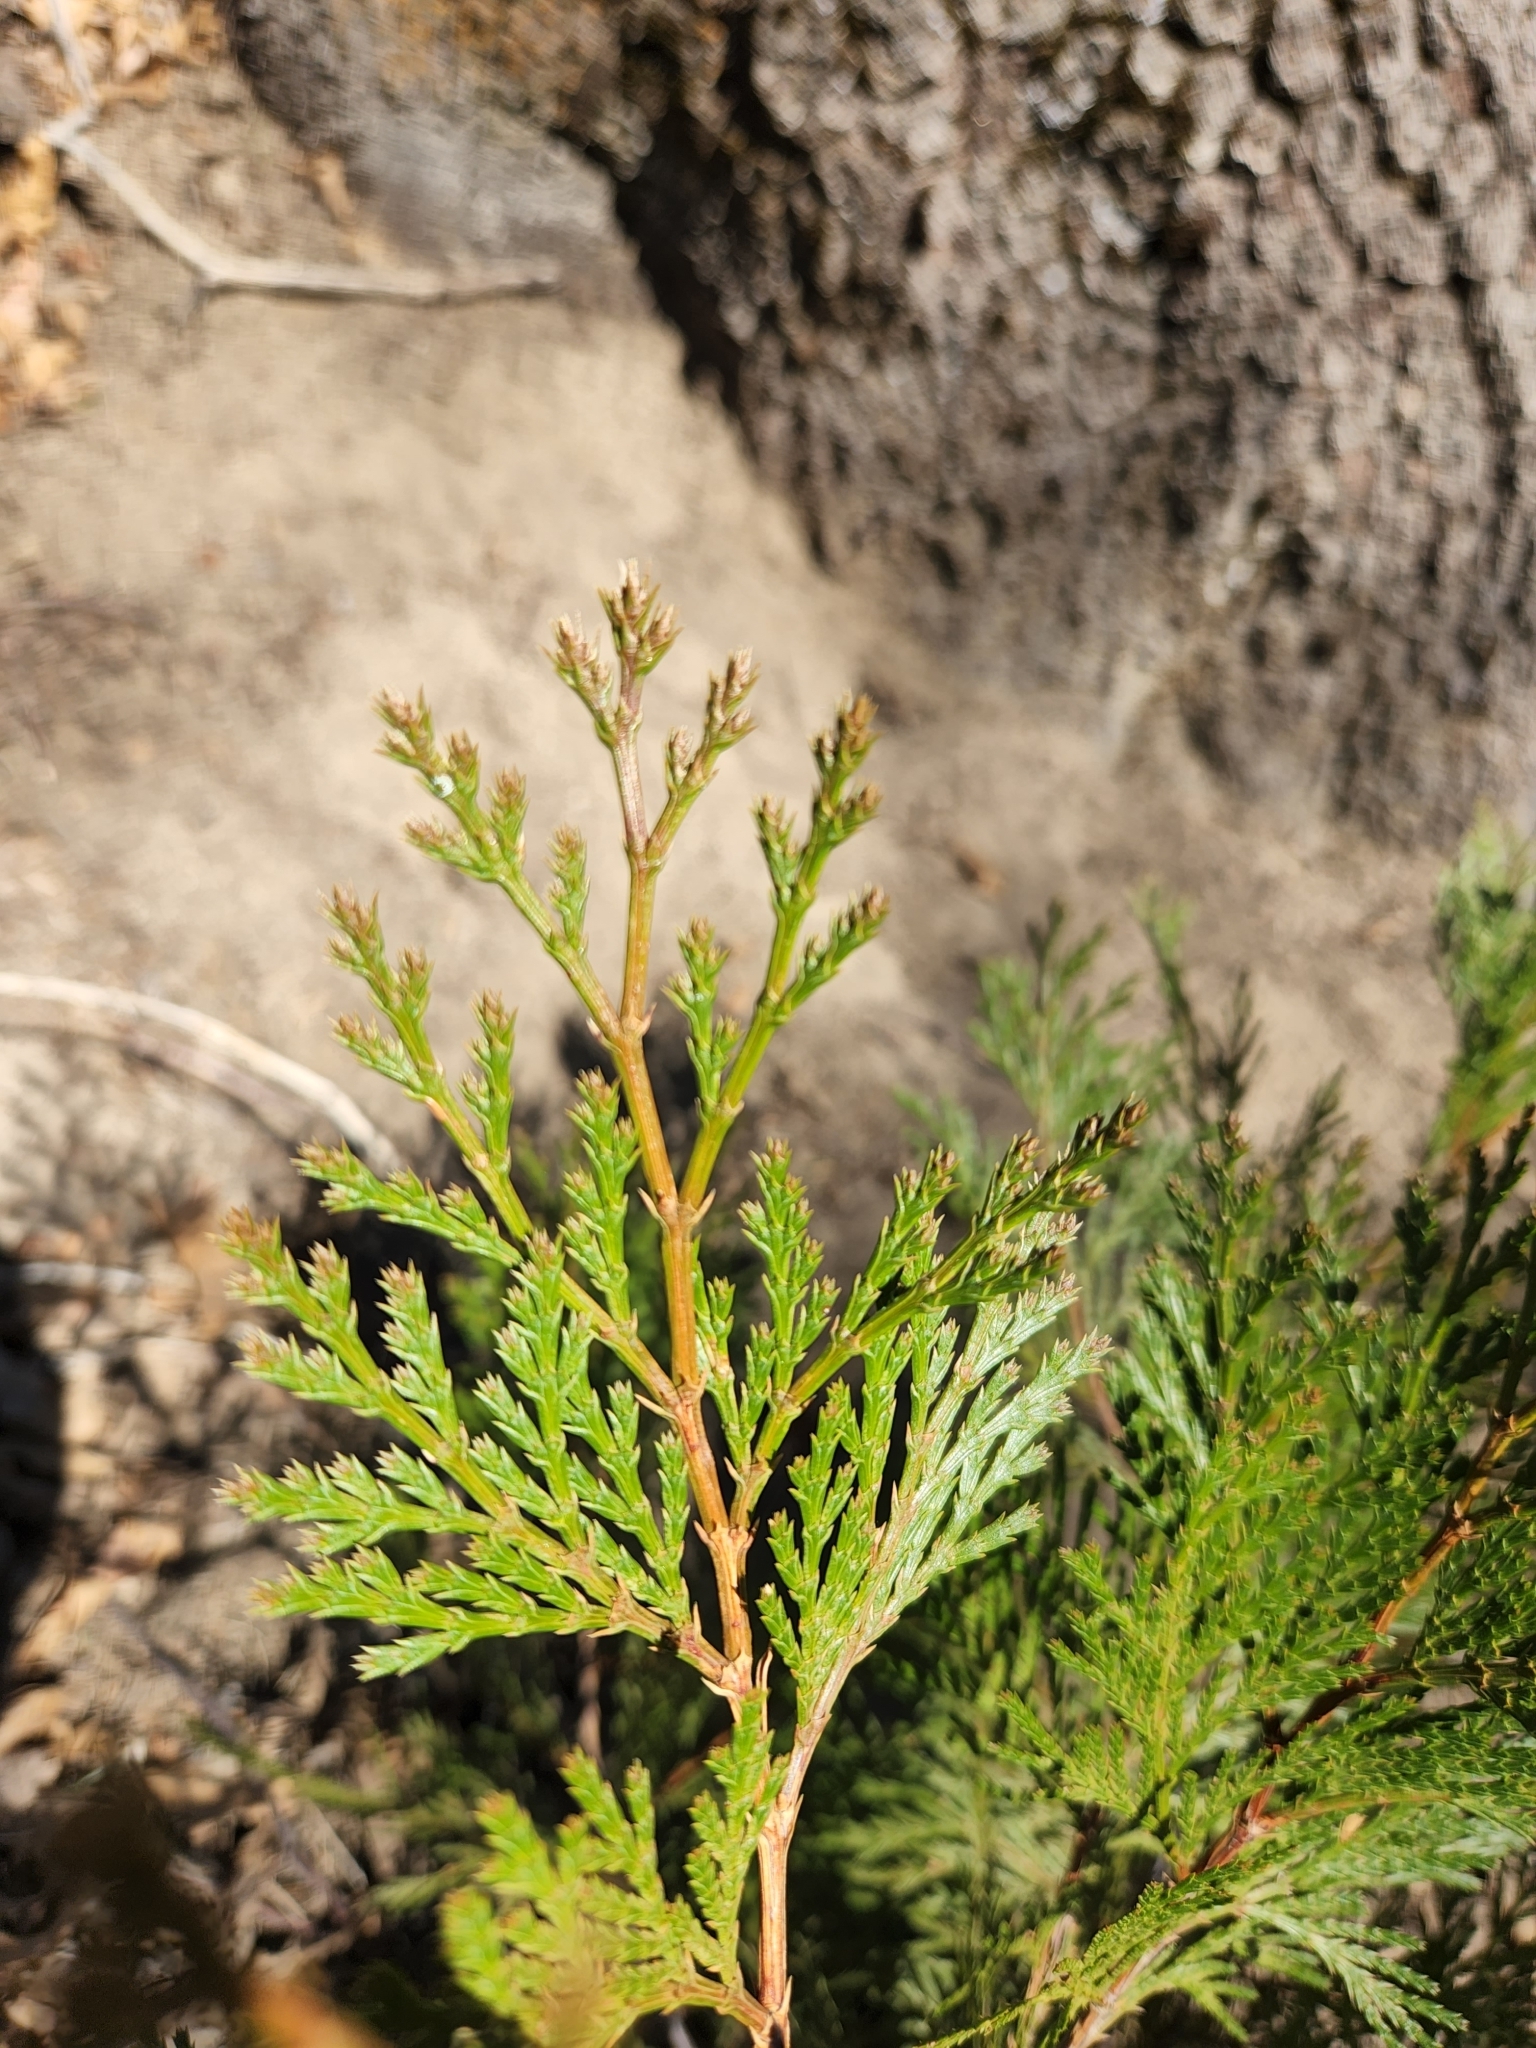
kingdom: Plantae
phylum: Tracheophyta
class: Pinopsida
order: Pinales
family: Cupressaceae
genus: Calocedrus
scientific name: Calocedrus decurrens
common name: Californian incense-cedar
